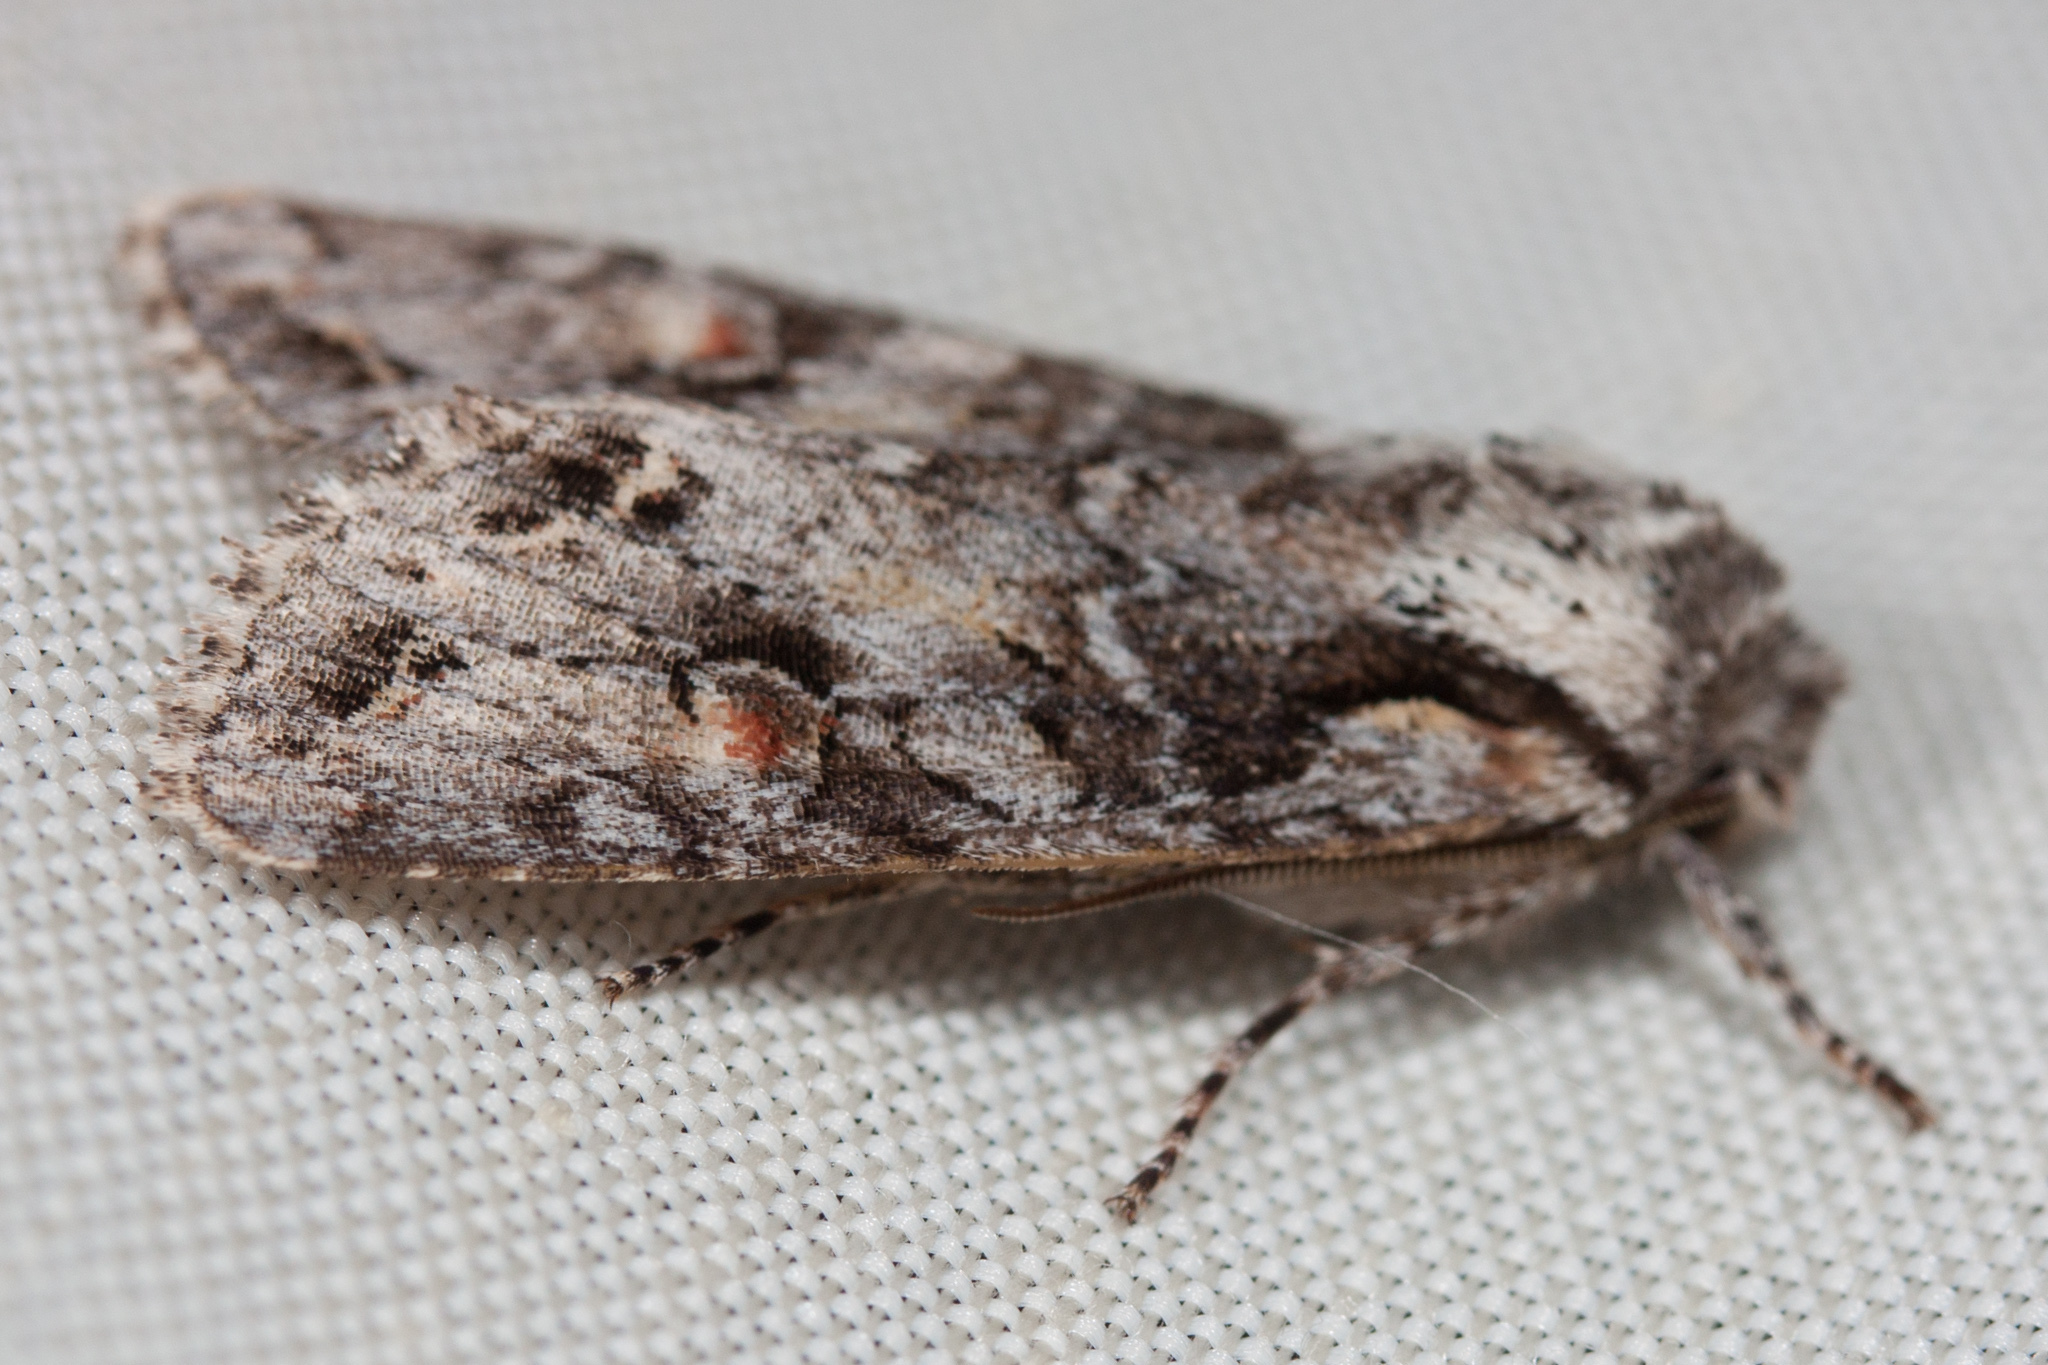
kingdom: Animalia
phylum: Arthropoda
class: Insecta
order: Lepidoptera
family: Noctuidae
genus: Egira
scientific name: Egira hiemalis
